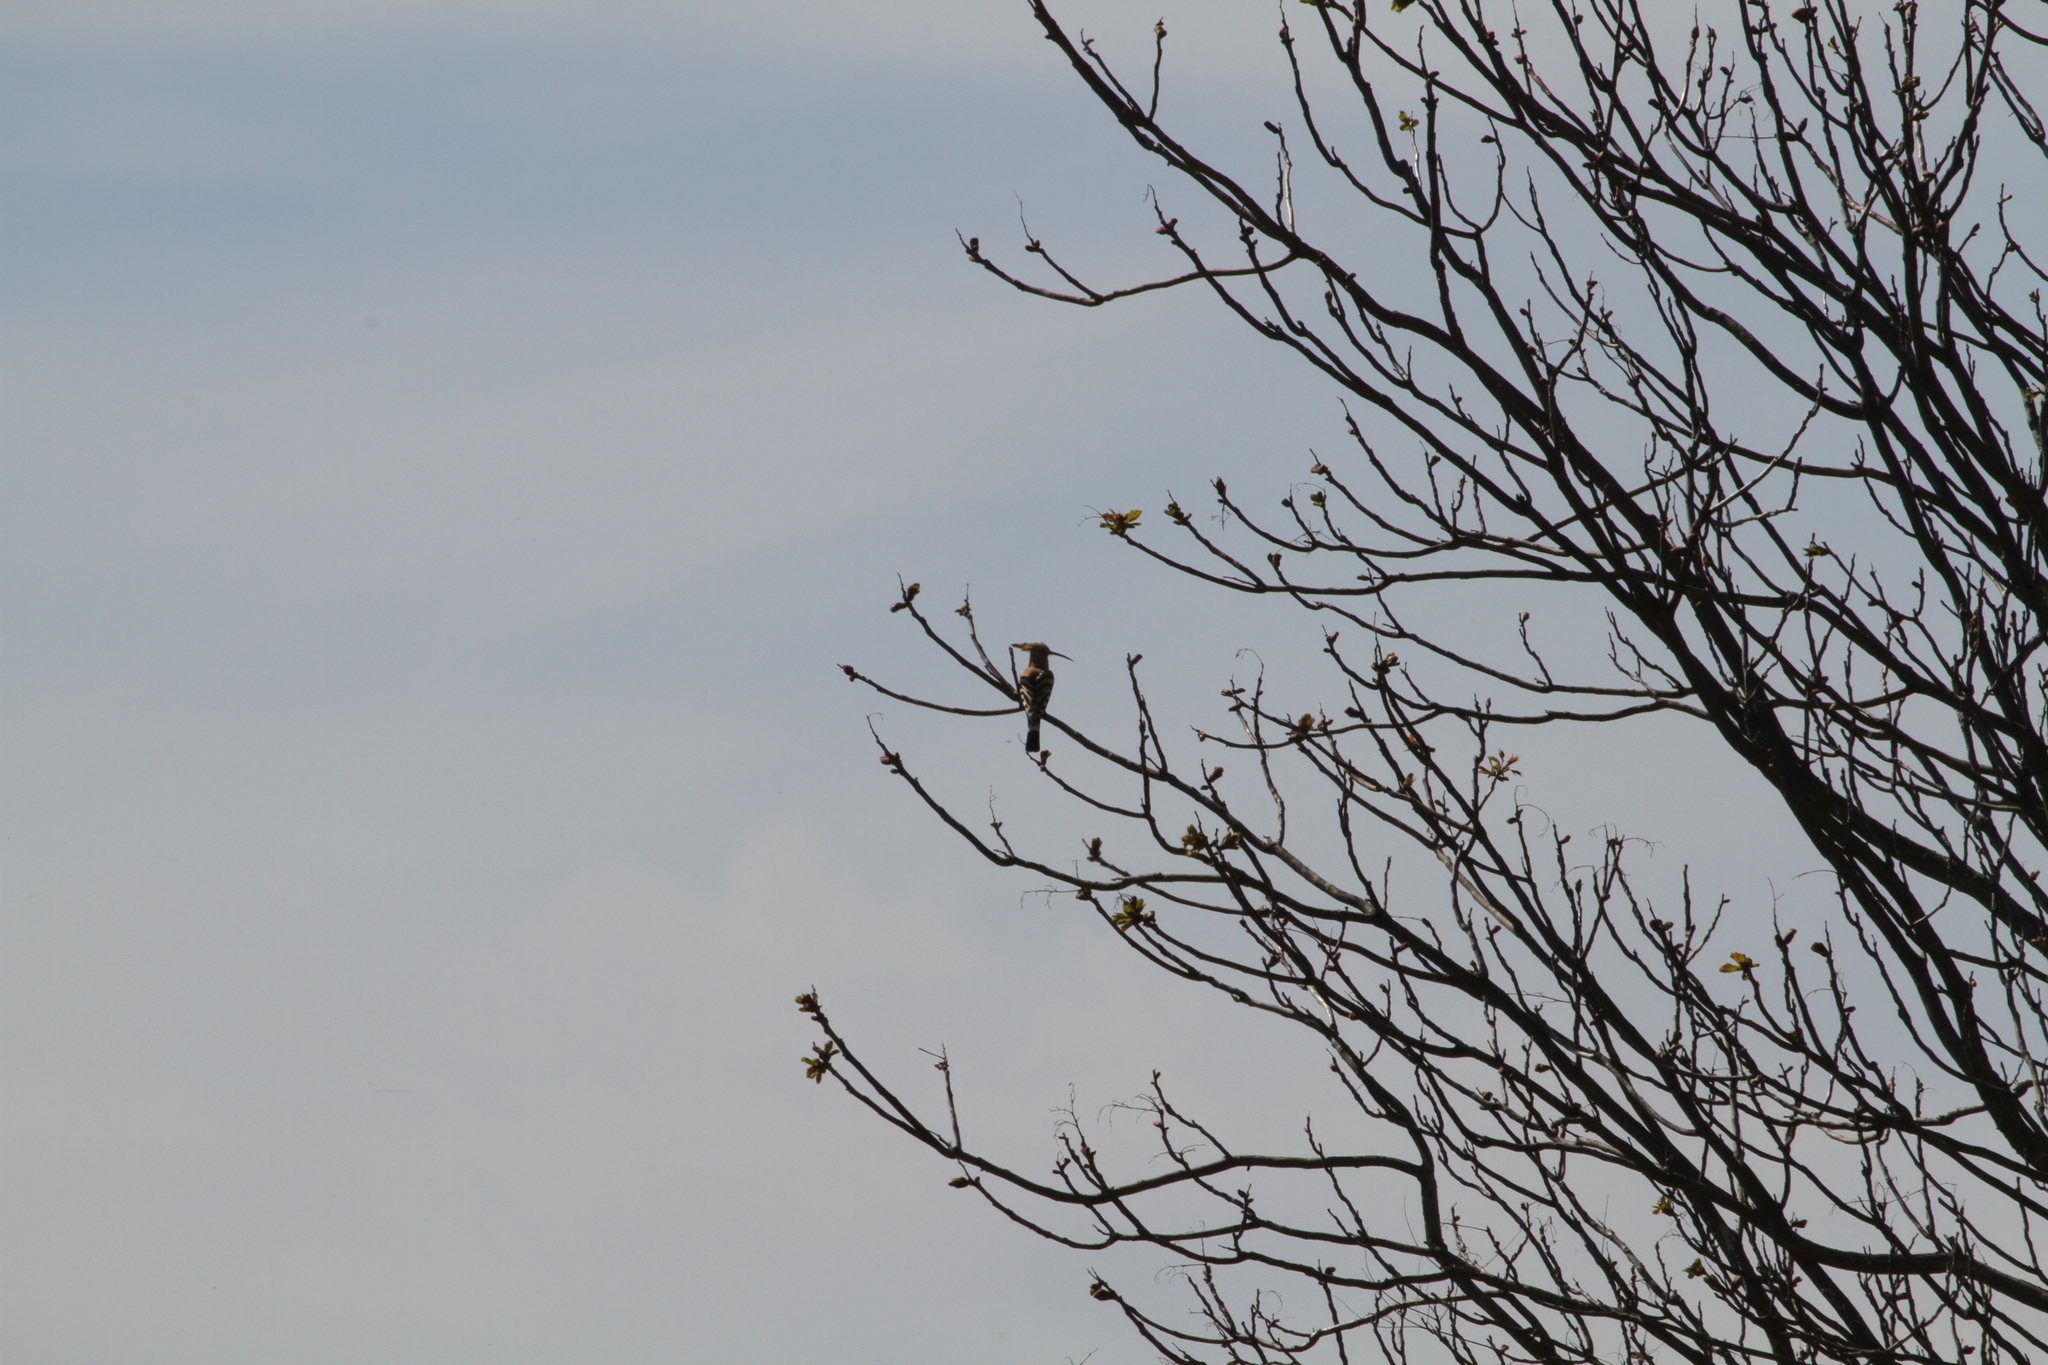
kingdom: Animalia
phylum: Chordata
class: Aves
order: Bucerotiformes
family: Upupidae
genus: Upupa
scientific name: Upupa epops
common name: Eurasian hoopoe
